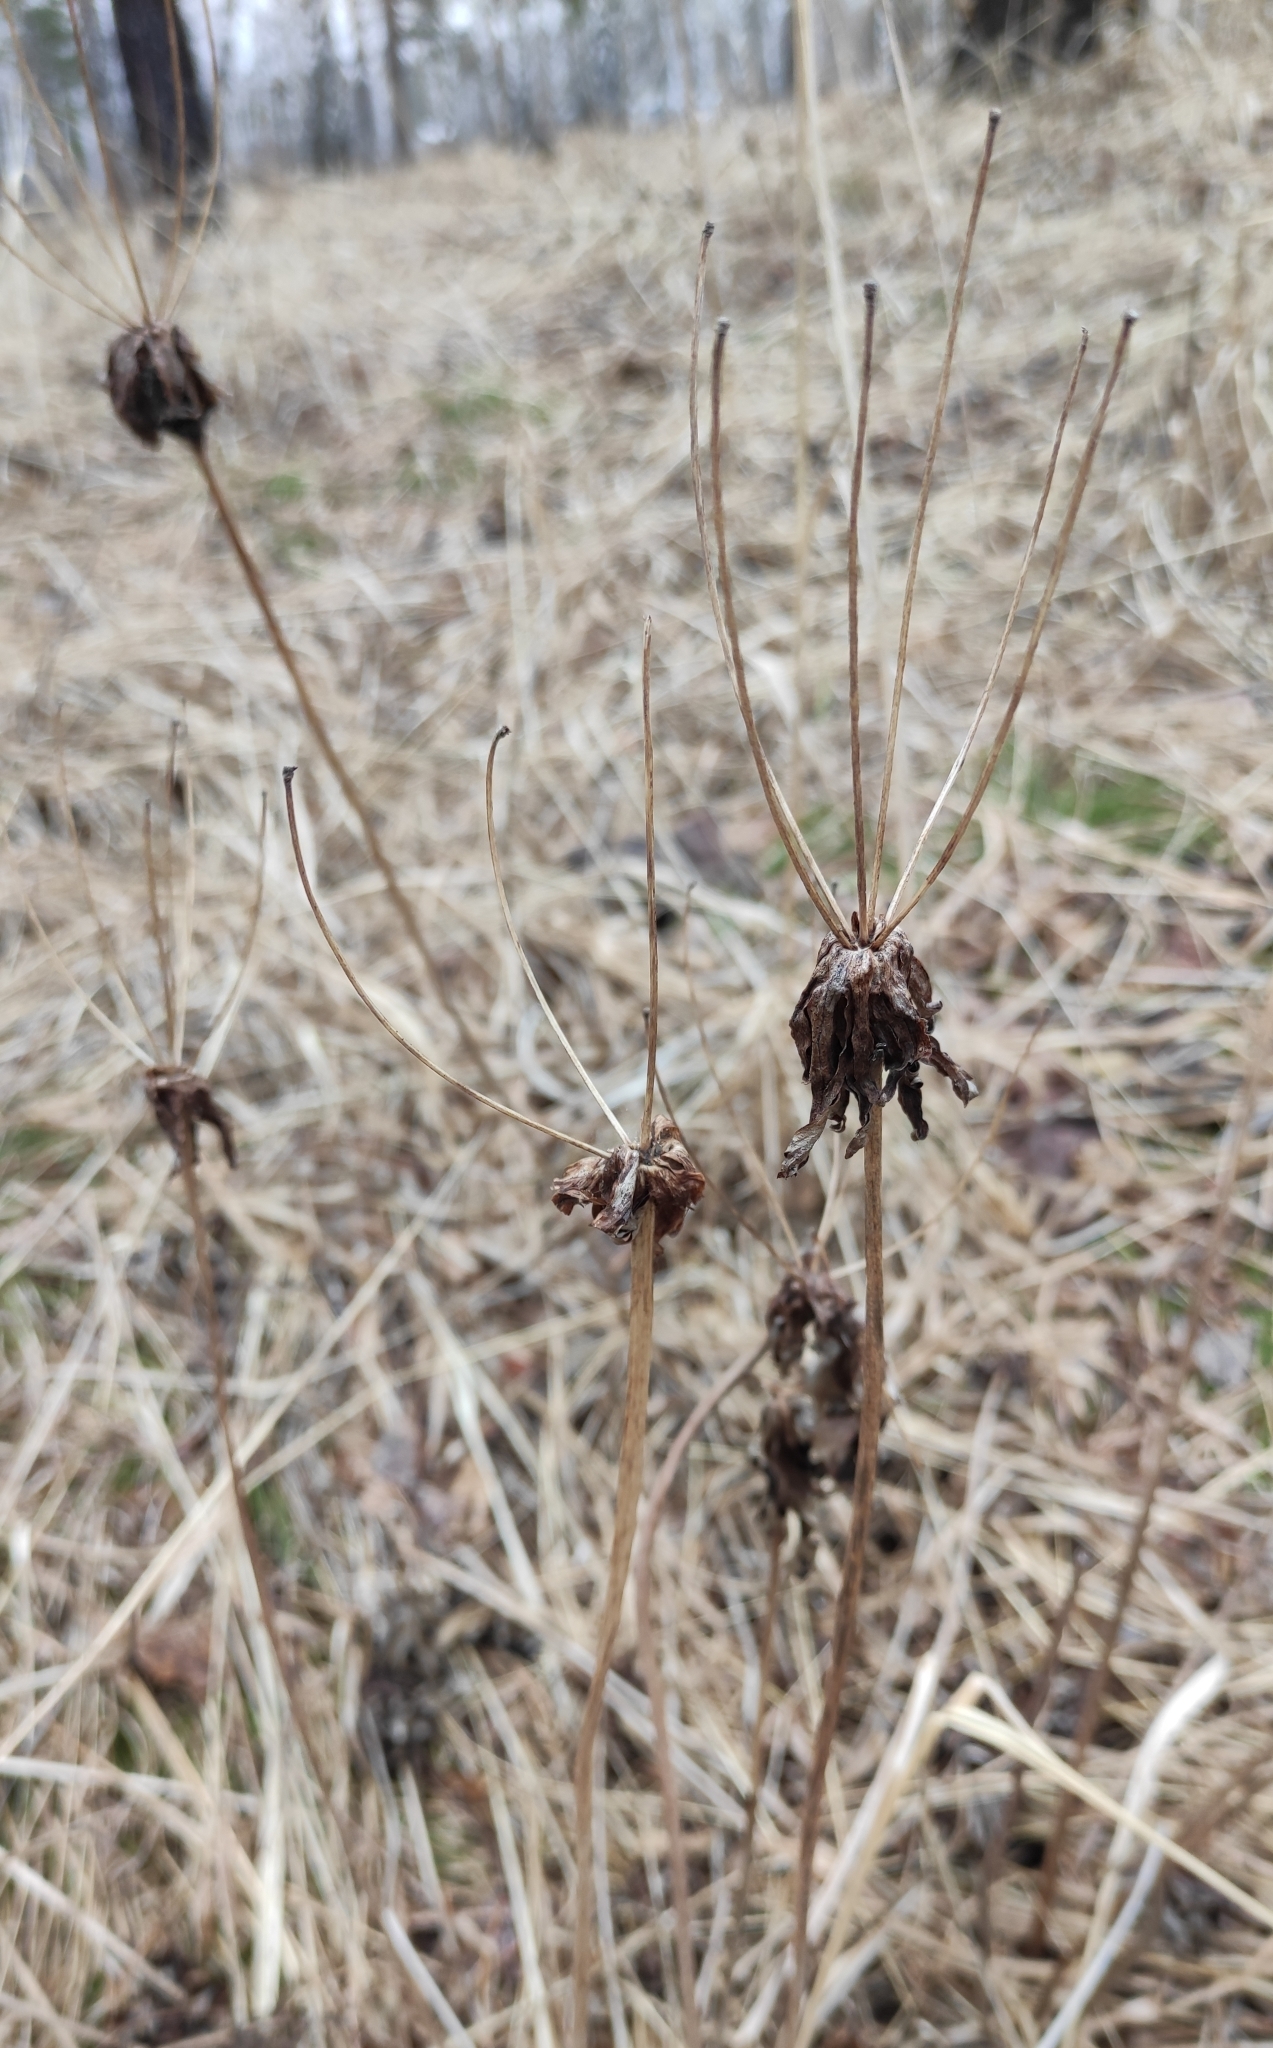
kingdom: Plantae
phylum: Tracheophyta
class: Magnoliopsida
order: Ranunculales
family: Ranunculaceae
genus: Anemonastrum
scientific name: Anemonastrum narcissiflorum
